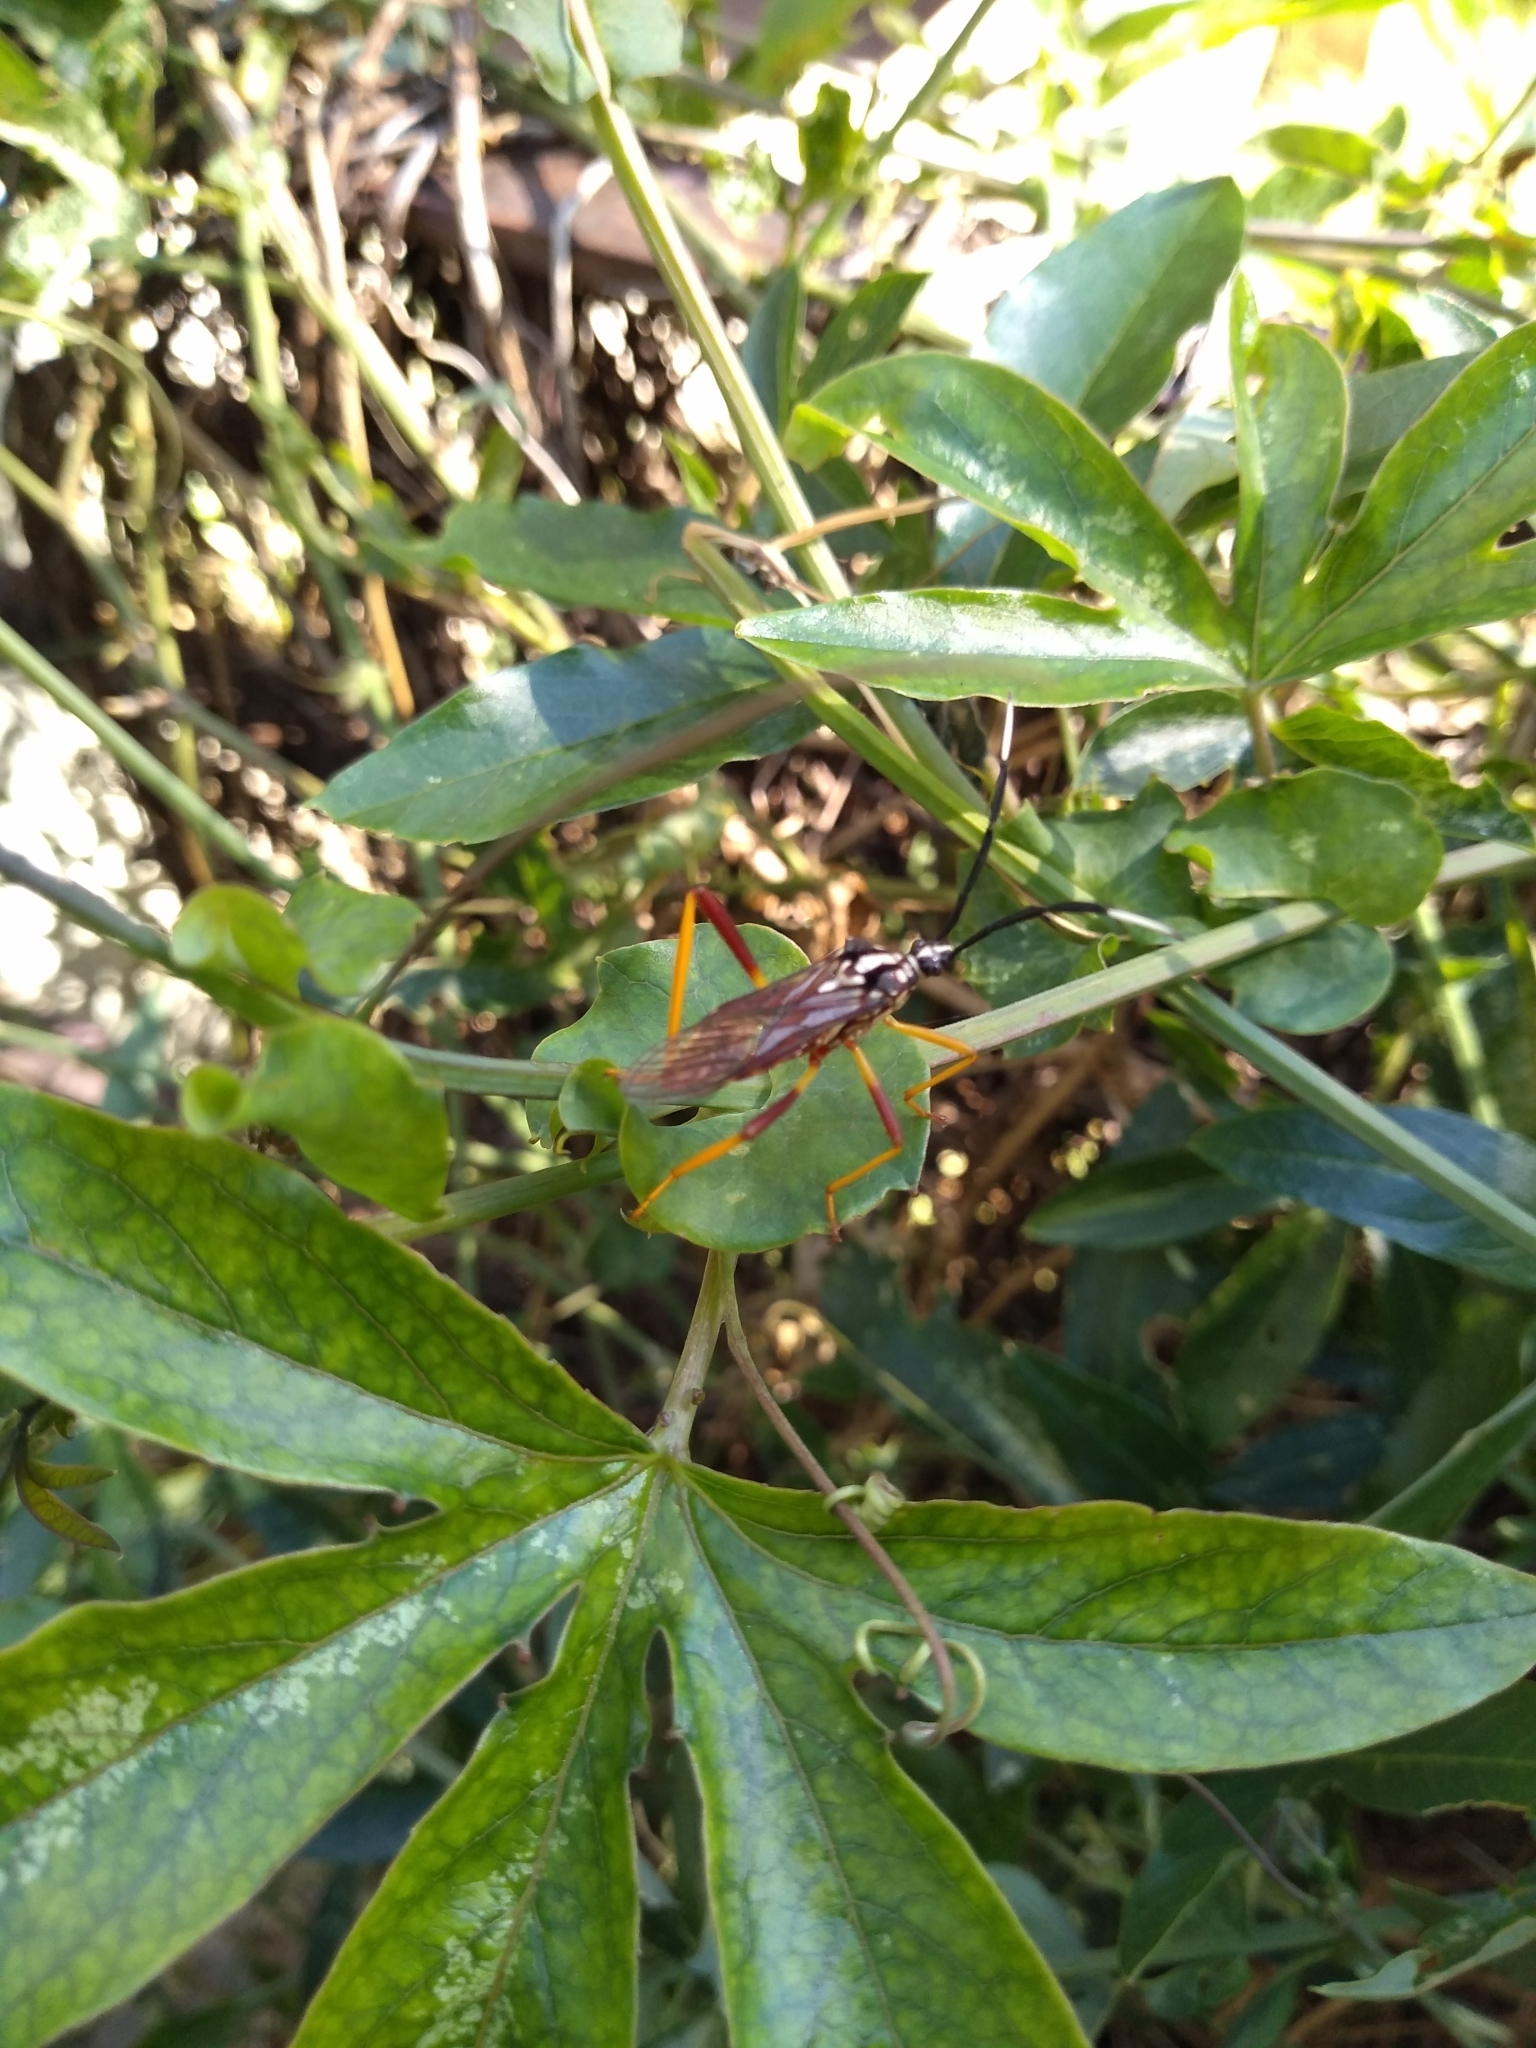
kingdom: Animalia
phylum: Arthropoda
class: Insecta
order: Hemiptera
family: Coreidae
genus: Holhymenia
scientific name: Holhymenia histrio
